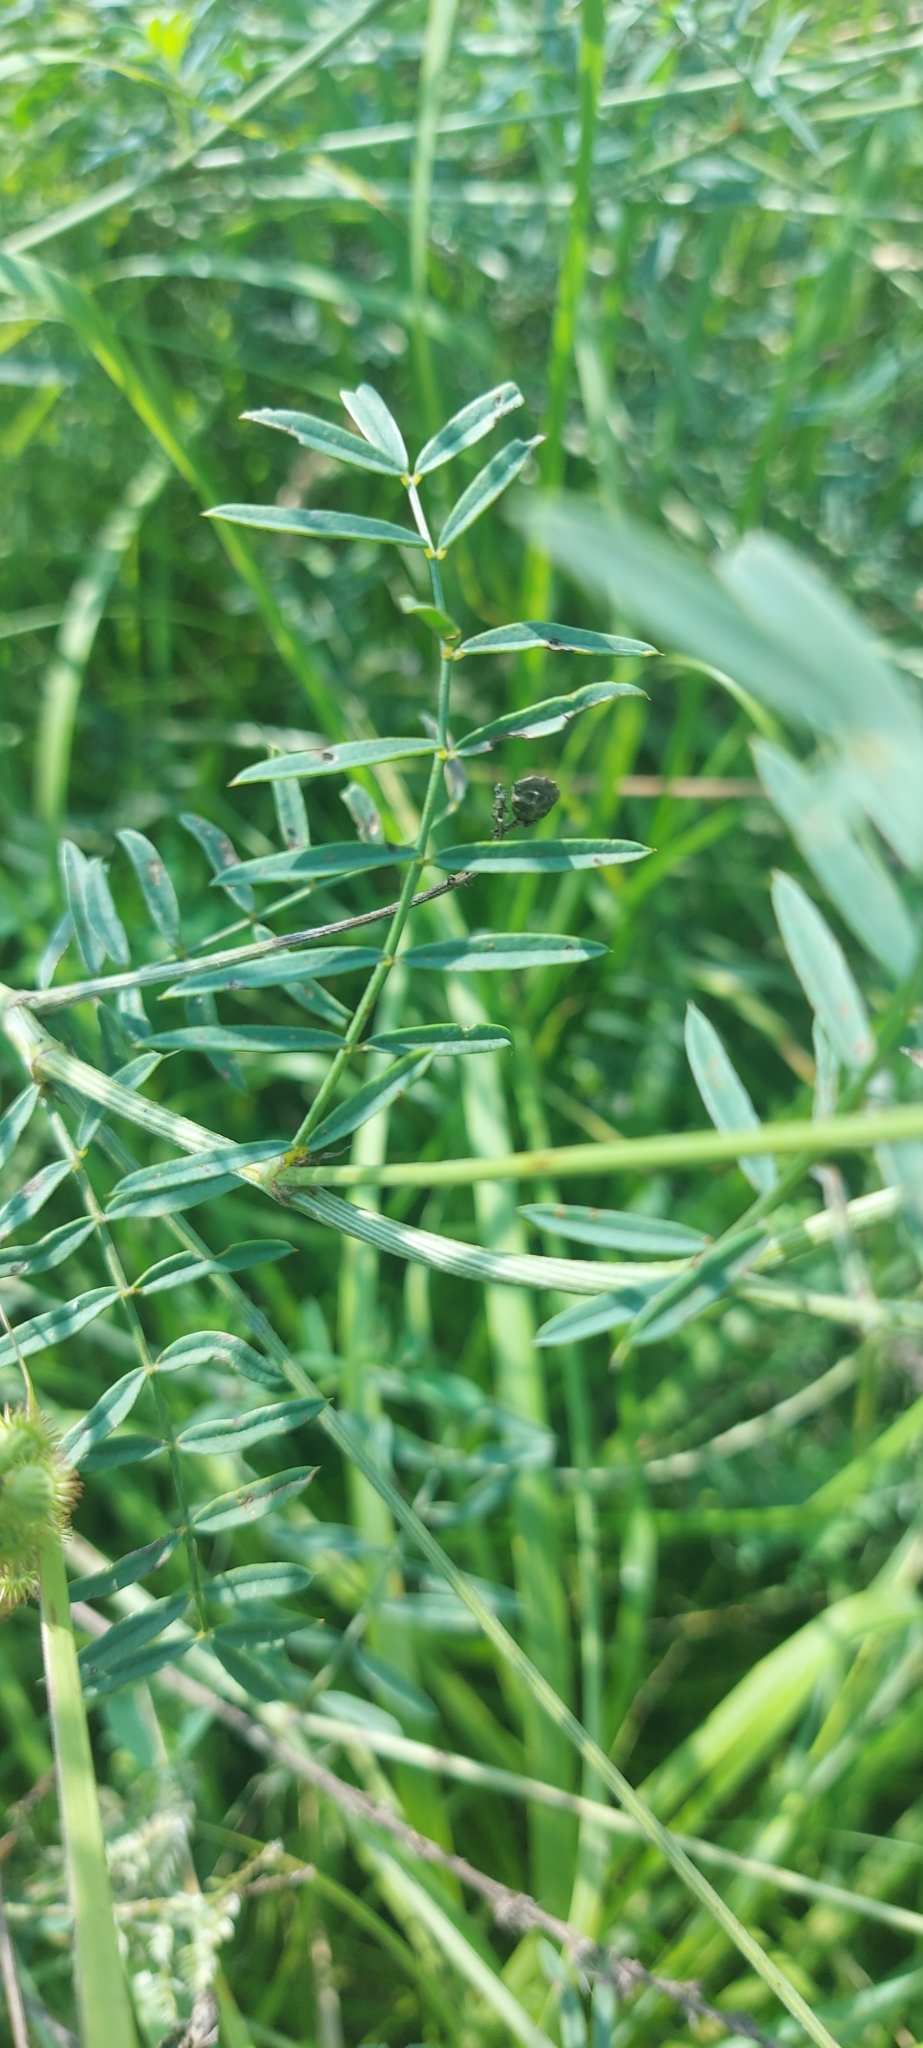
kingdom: Plantae
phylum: Tracheophyta
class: Magnoliopsida
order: Fabales
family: Fabaceae
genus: Onobrychis
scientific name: Onobrychis viciifolia
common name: Sainfoin
